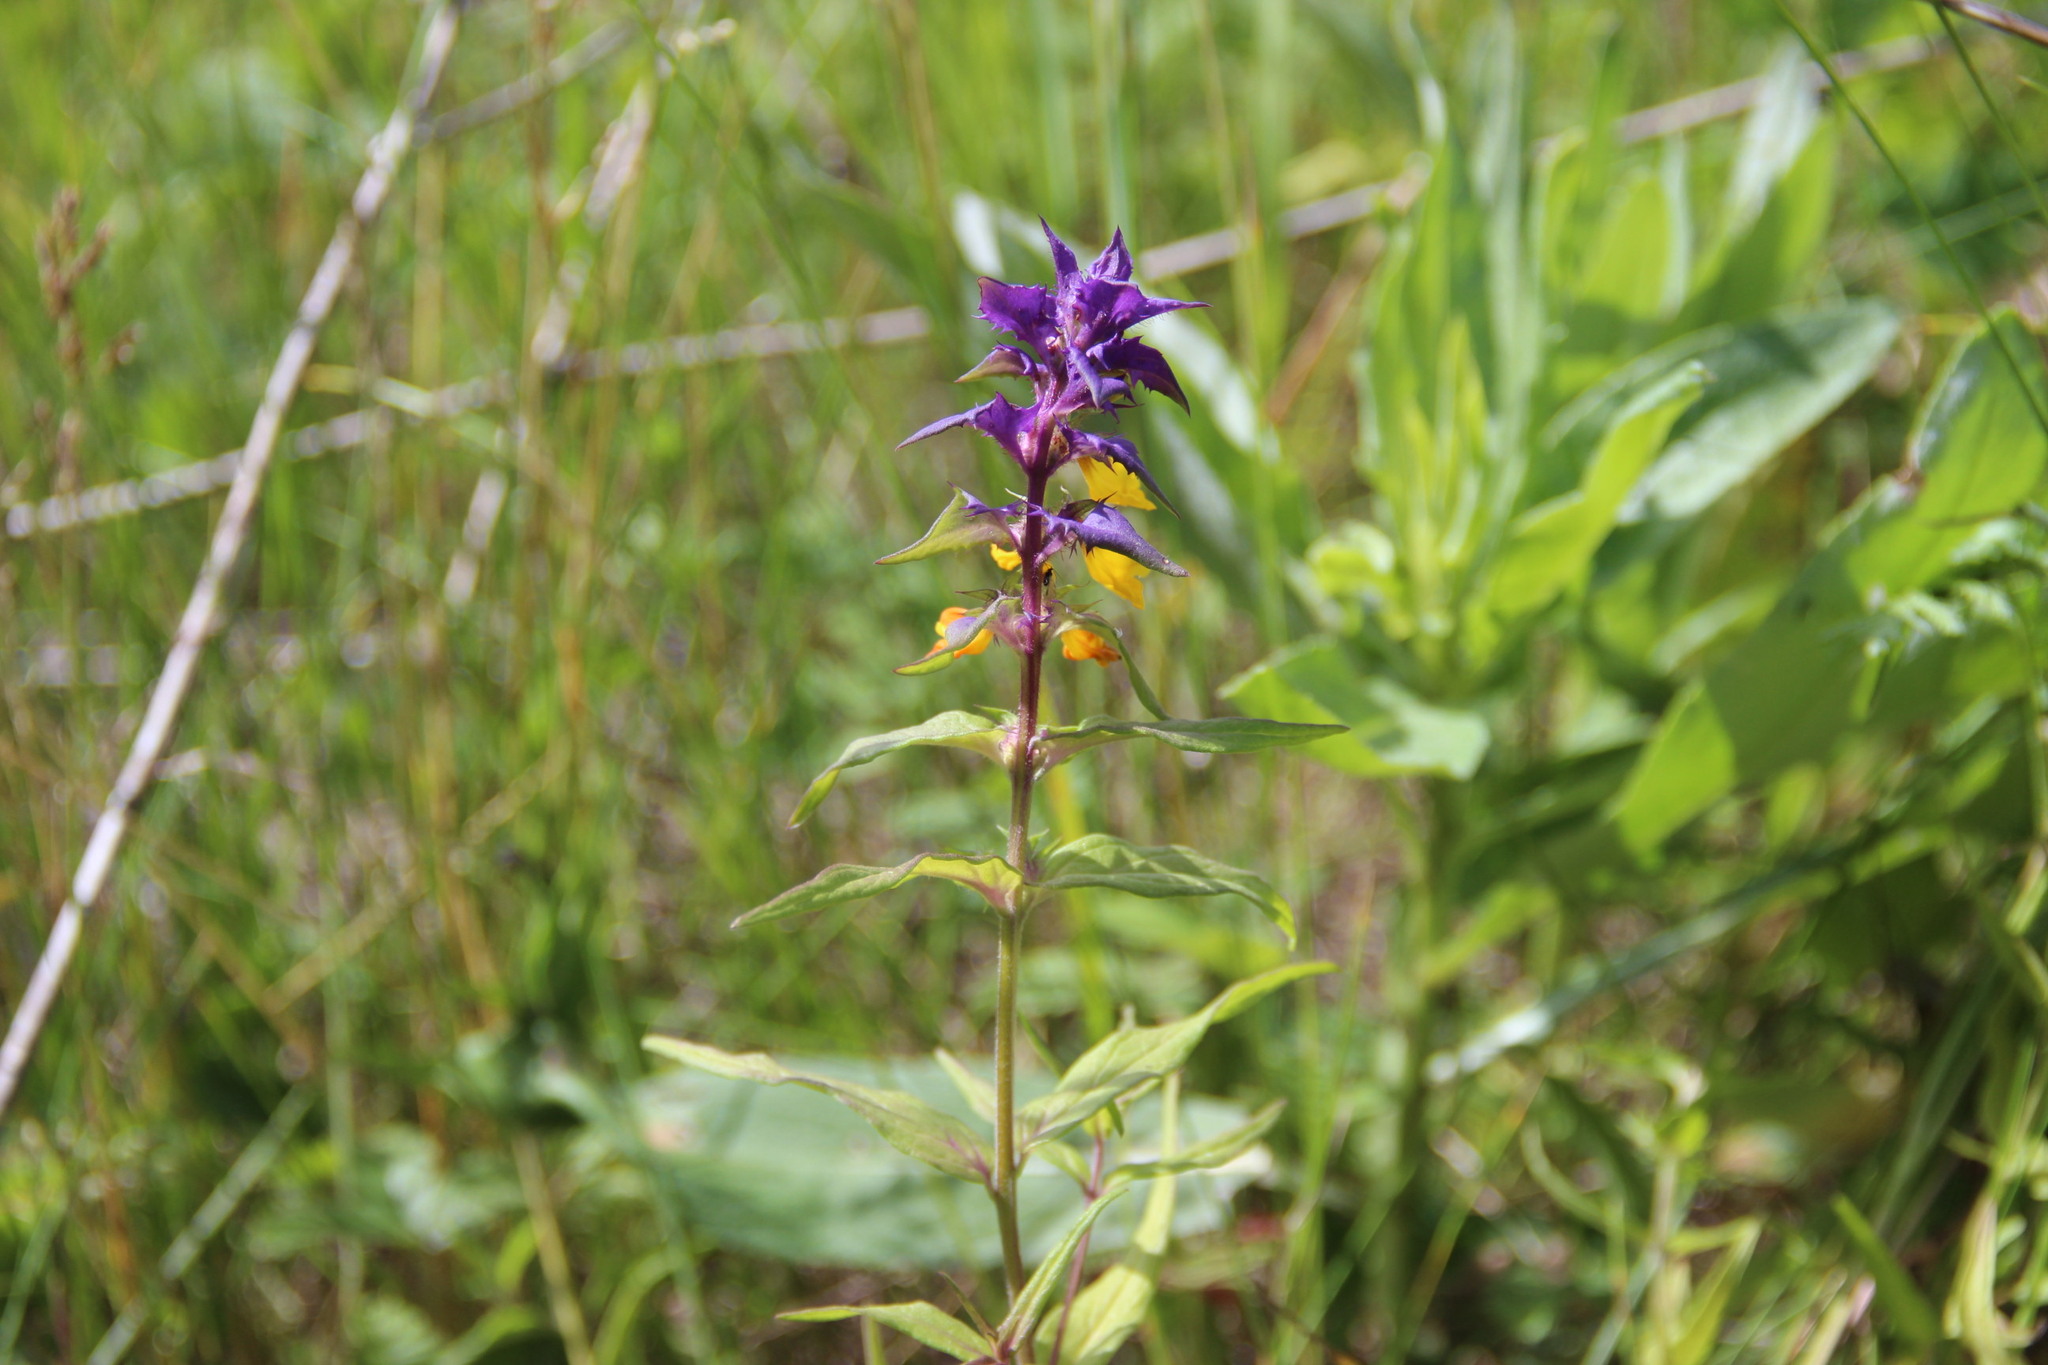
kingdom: Plantae
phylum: Tracheophyta
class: Magnoliopsida
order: Lamiales
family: Orobanchaceae
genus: Melampyrum
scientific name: Melampyrum nemorosum
